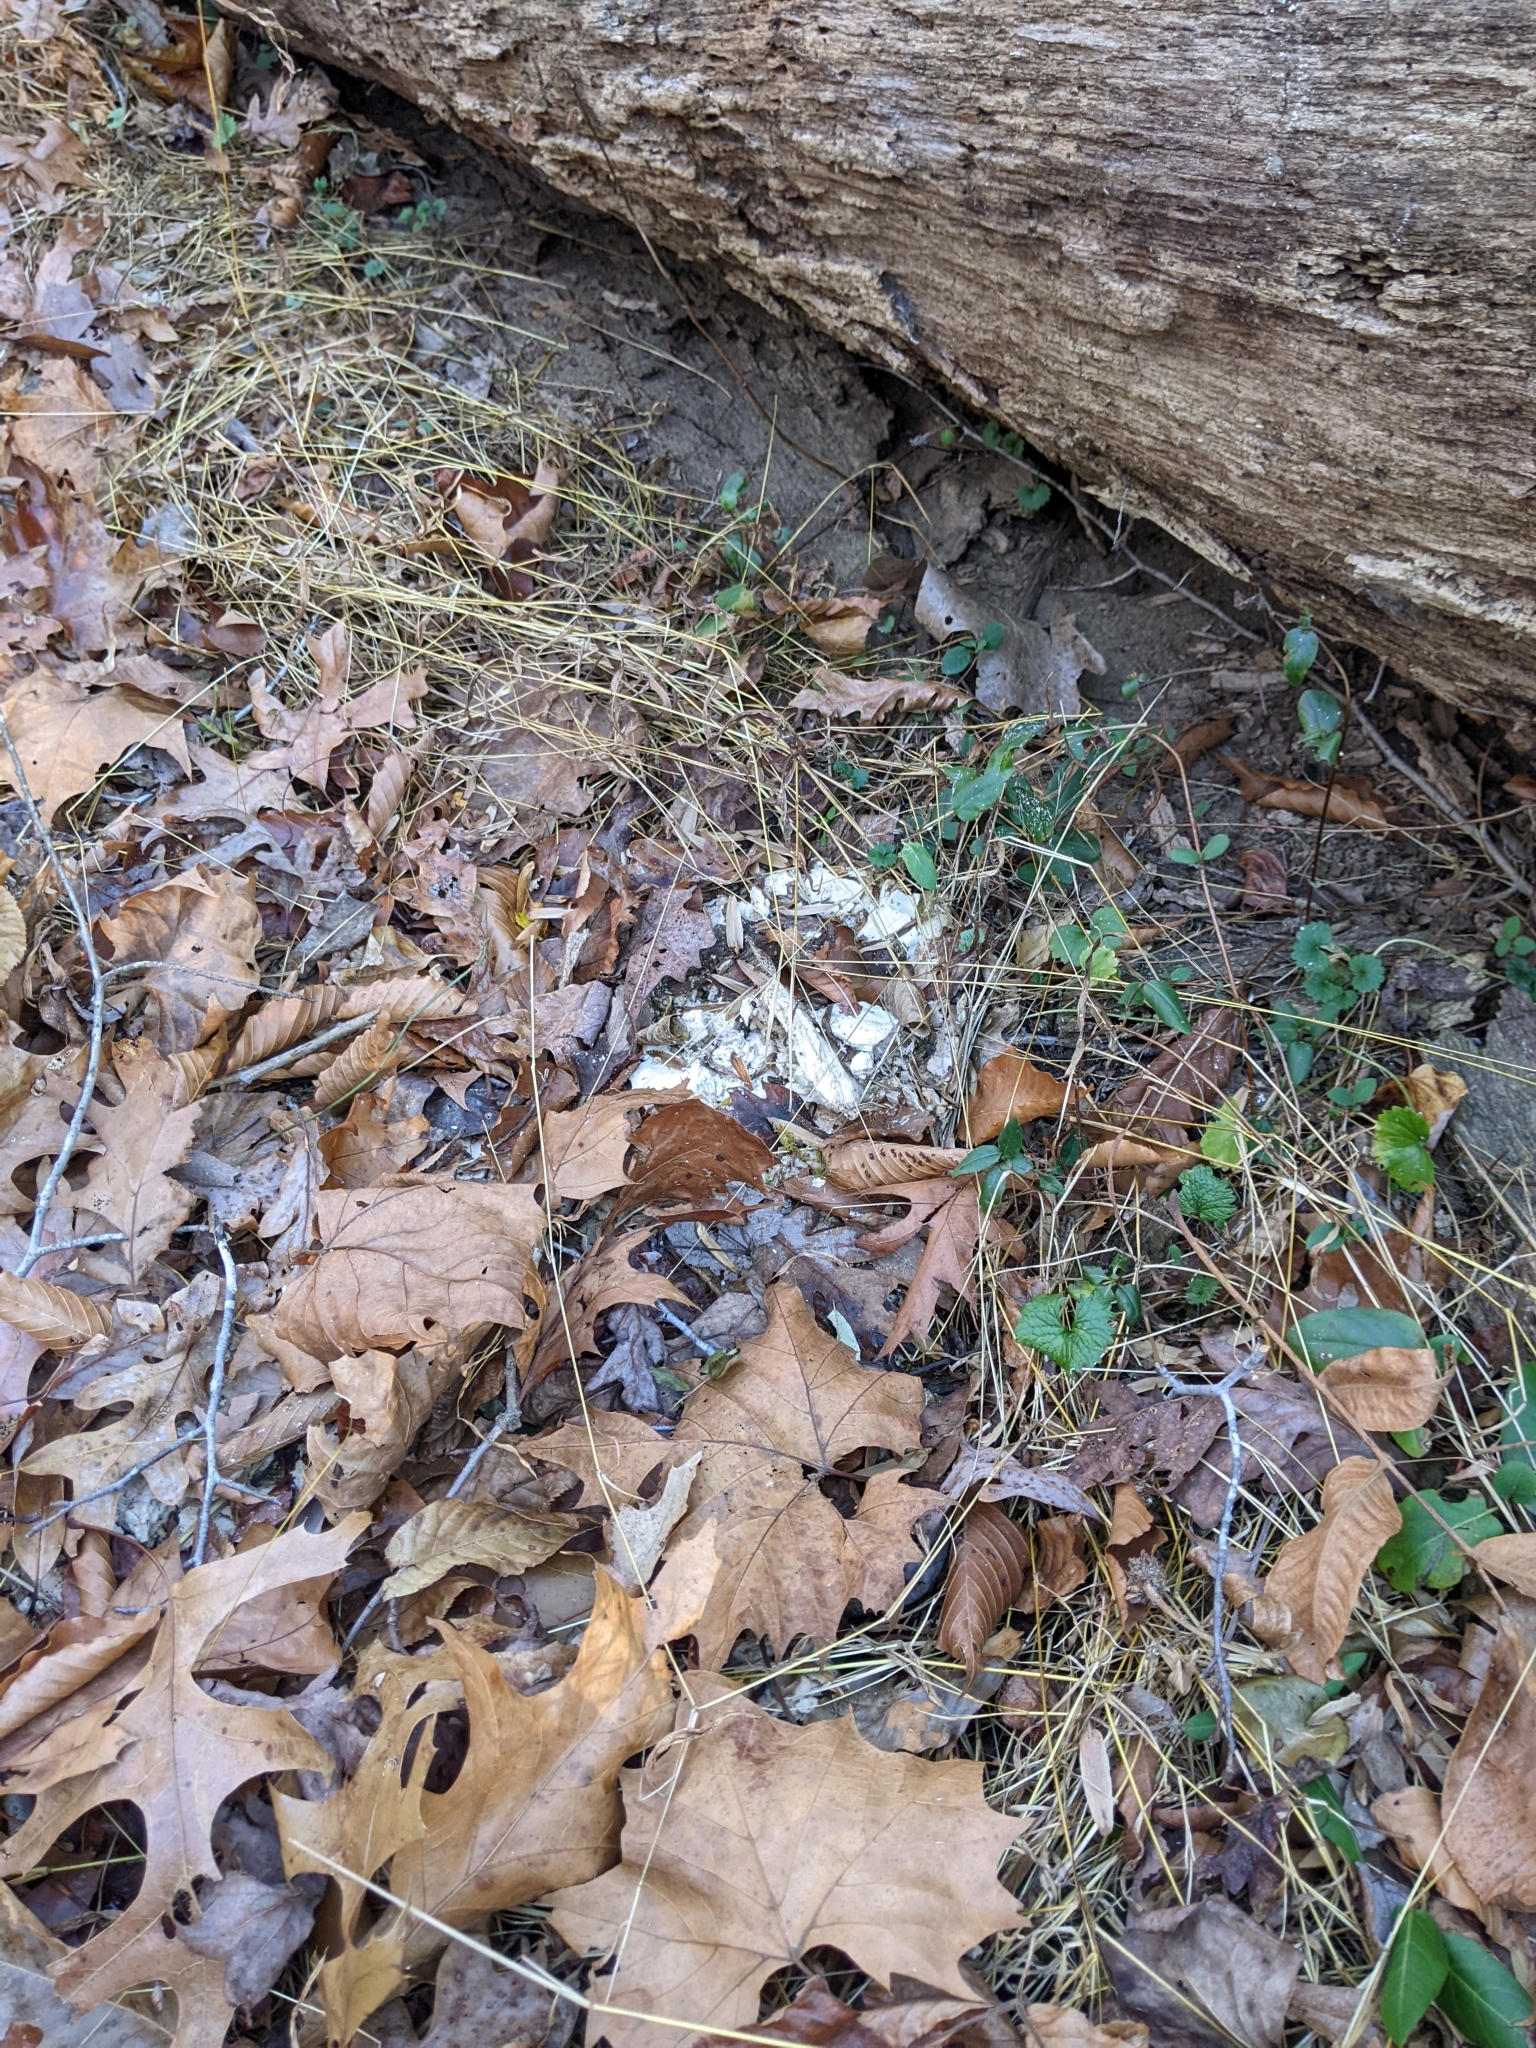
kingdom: Fungi
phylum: Basidiomycota
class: Agaricomycetes
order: Polyporales
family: Laetiporaceae
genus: Laetiporus
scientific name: Laetiporus sulphureus
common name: Chicken of the woods
